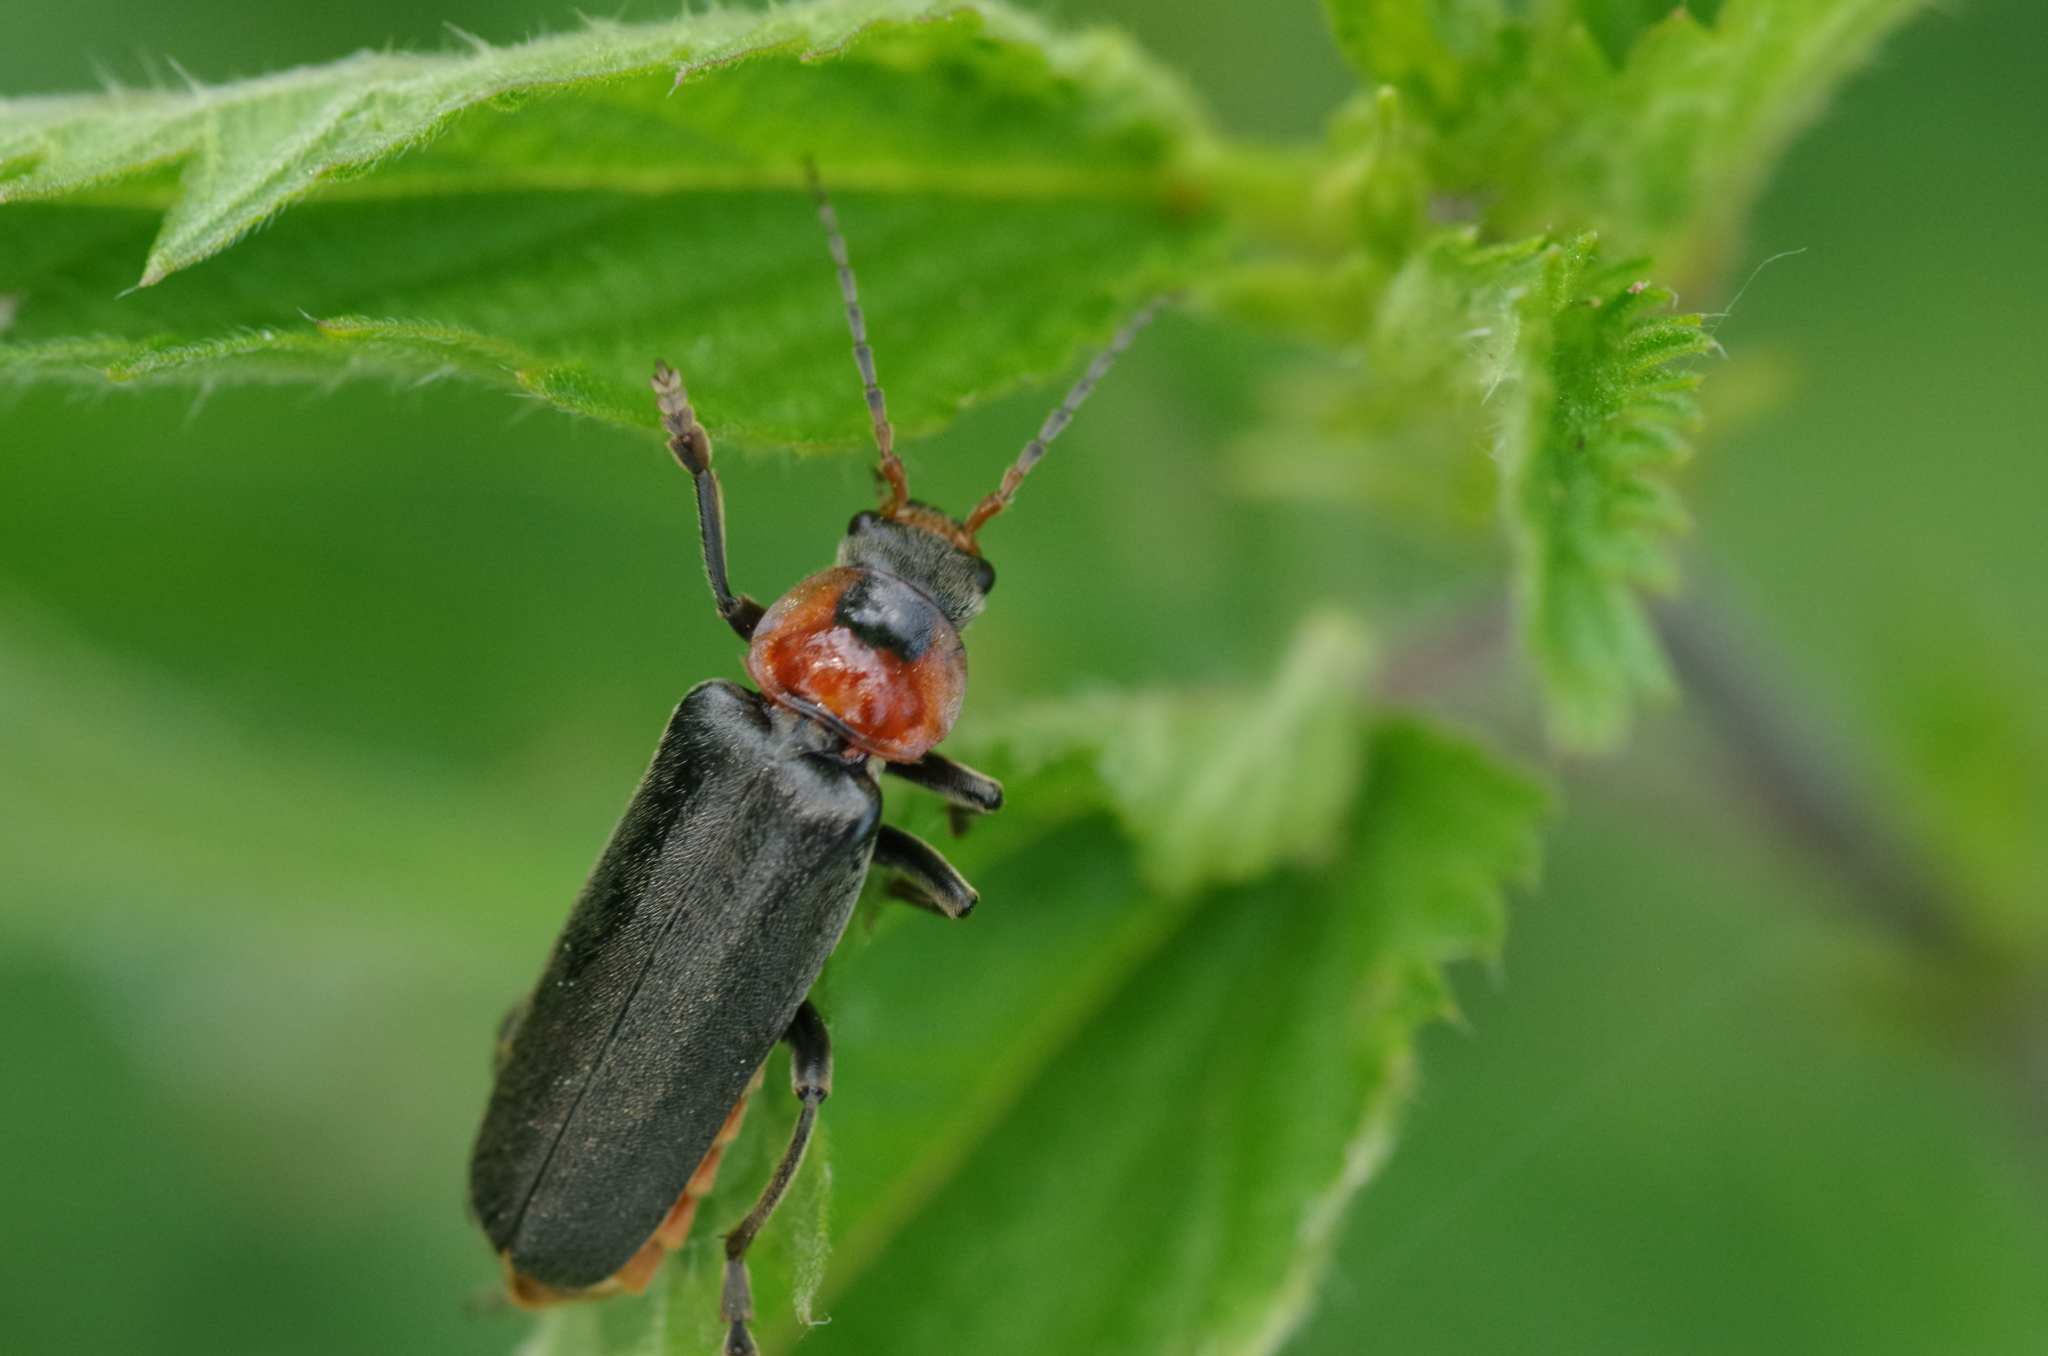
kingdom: Animalia
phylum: Arthropoda
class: Insecta
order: Coleoptera
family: Cantharidae
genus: Cantharis
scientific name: Cantharis fusca
